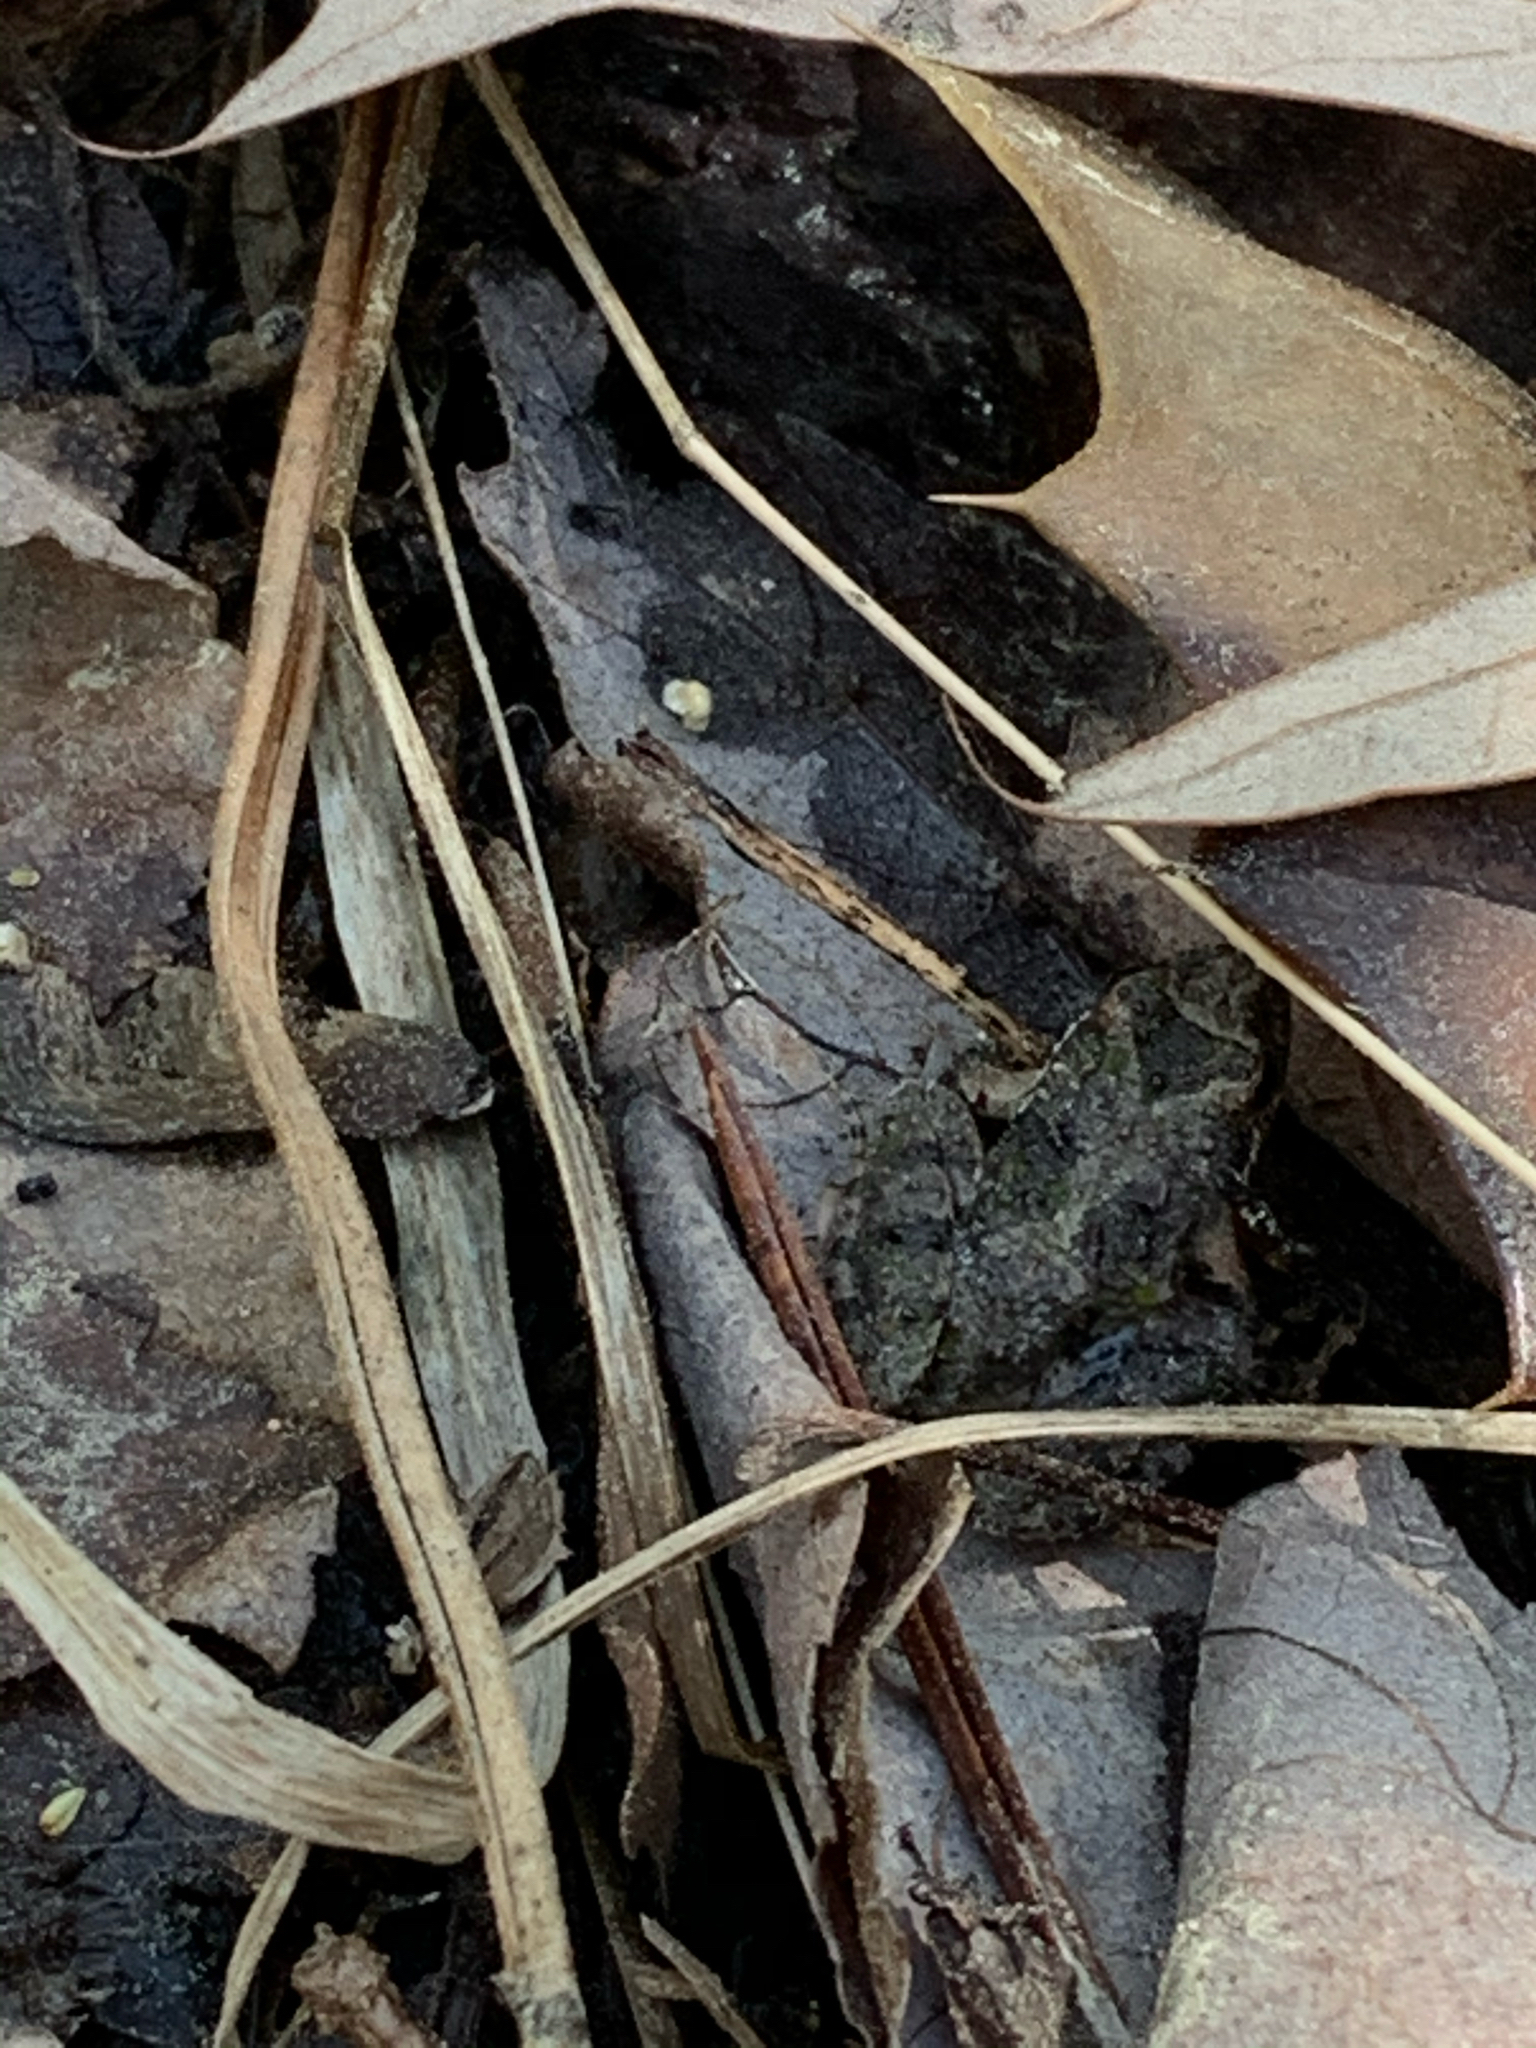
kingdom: Animalia
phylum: Chordata
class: Amphibia
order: Anura
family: Hylidae
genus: Acris
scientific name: Acris crepitans
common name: Northern cricket frog
